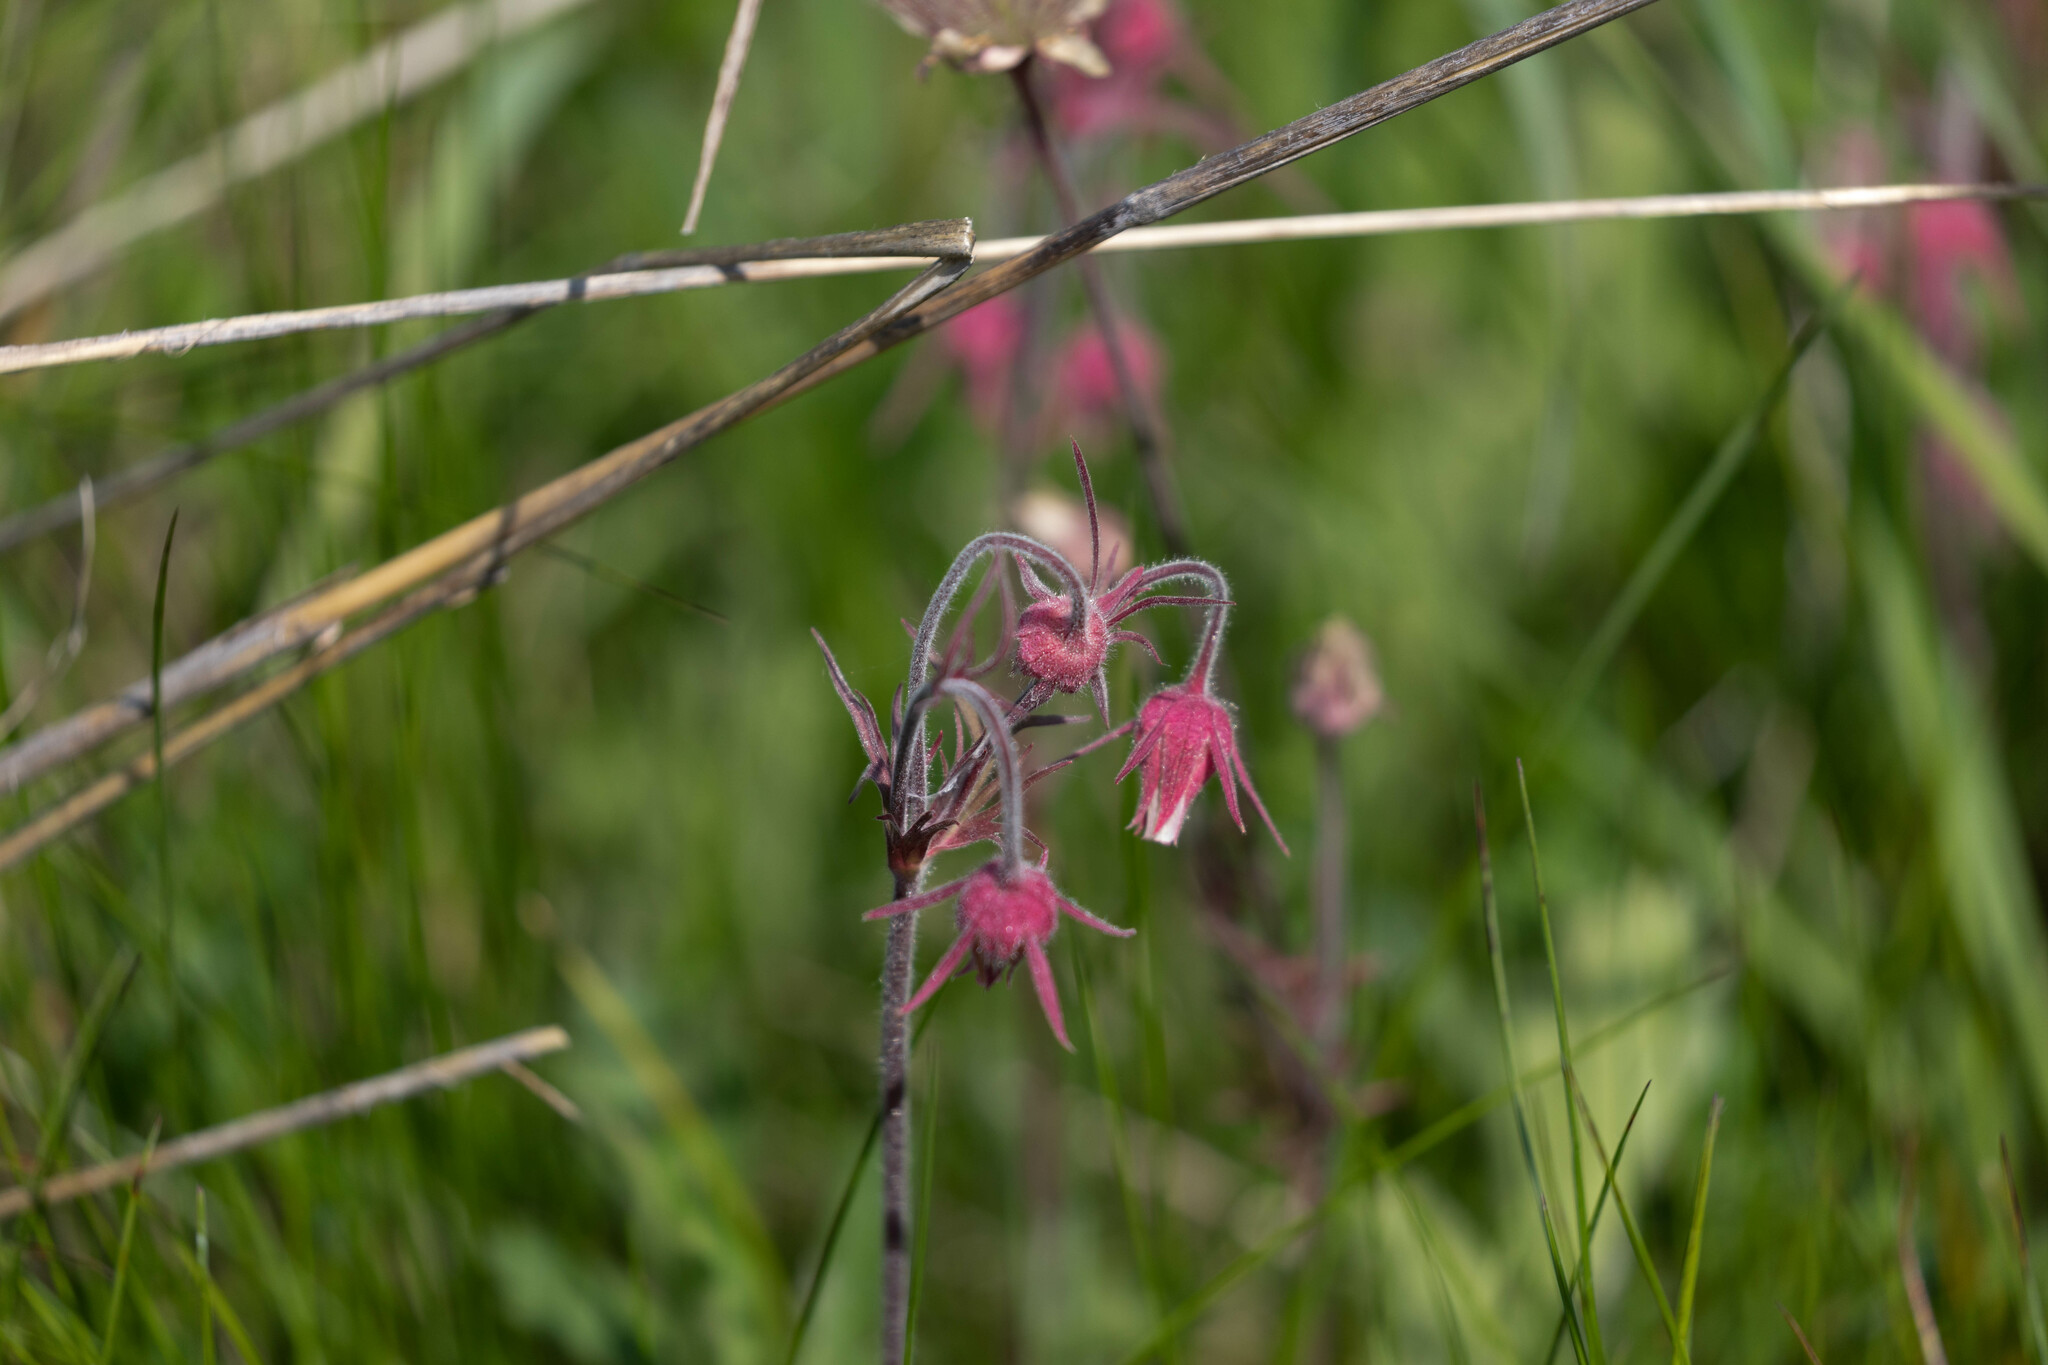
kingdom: Plantae
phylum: Tracheophyta
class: Magnoliopsida
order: Rosales
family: Rosaceae
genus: Geum
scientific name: Geum triflorum
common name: Old man's whiskers
